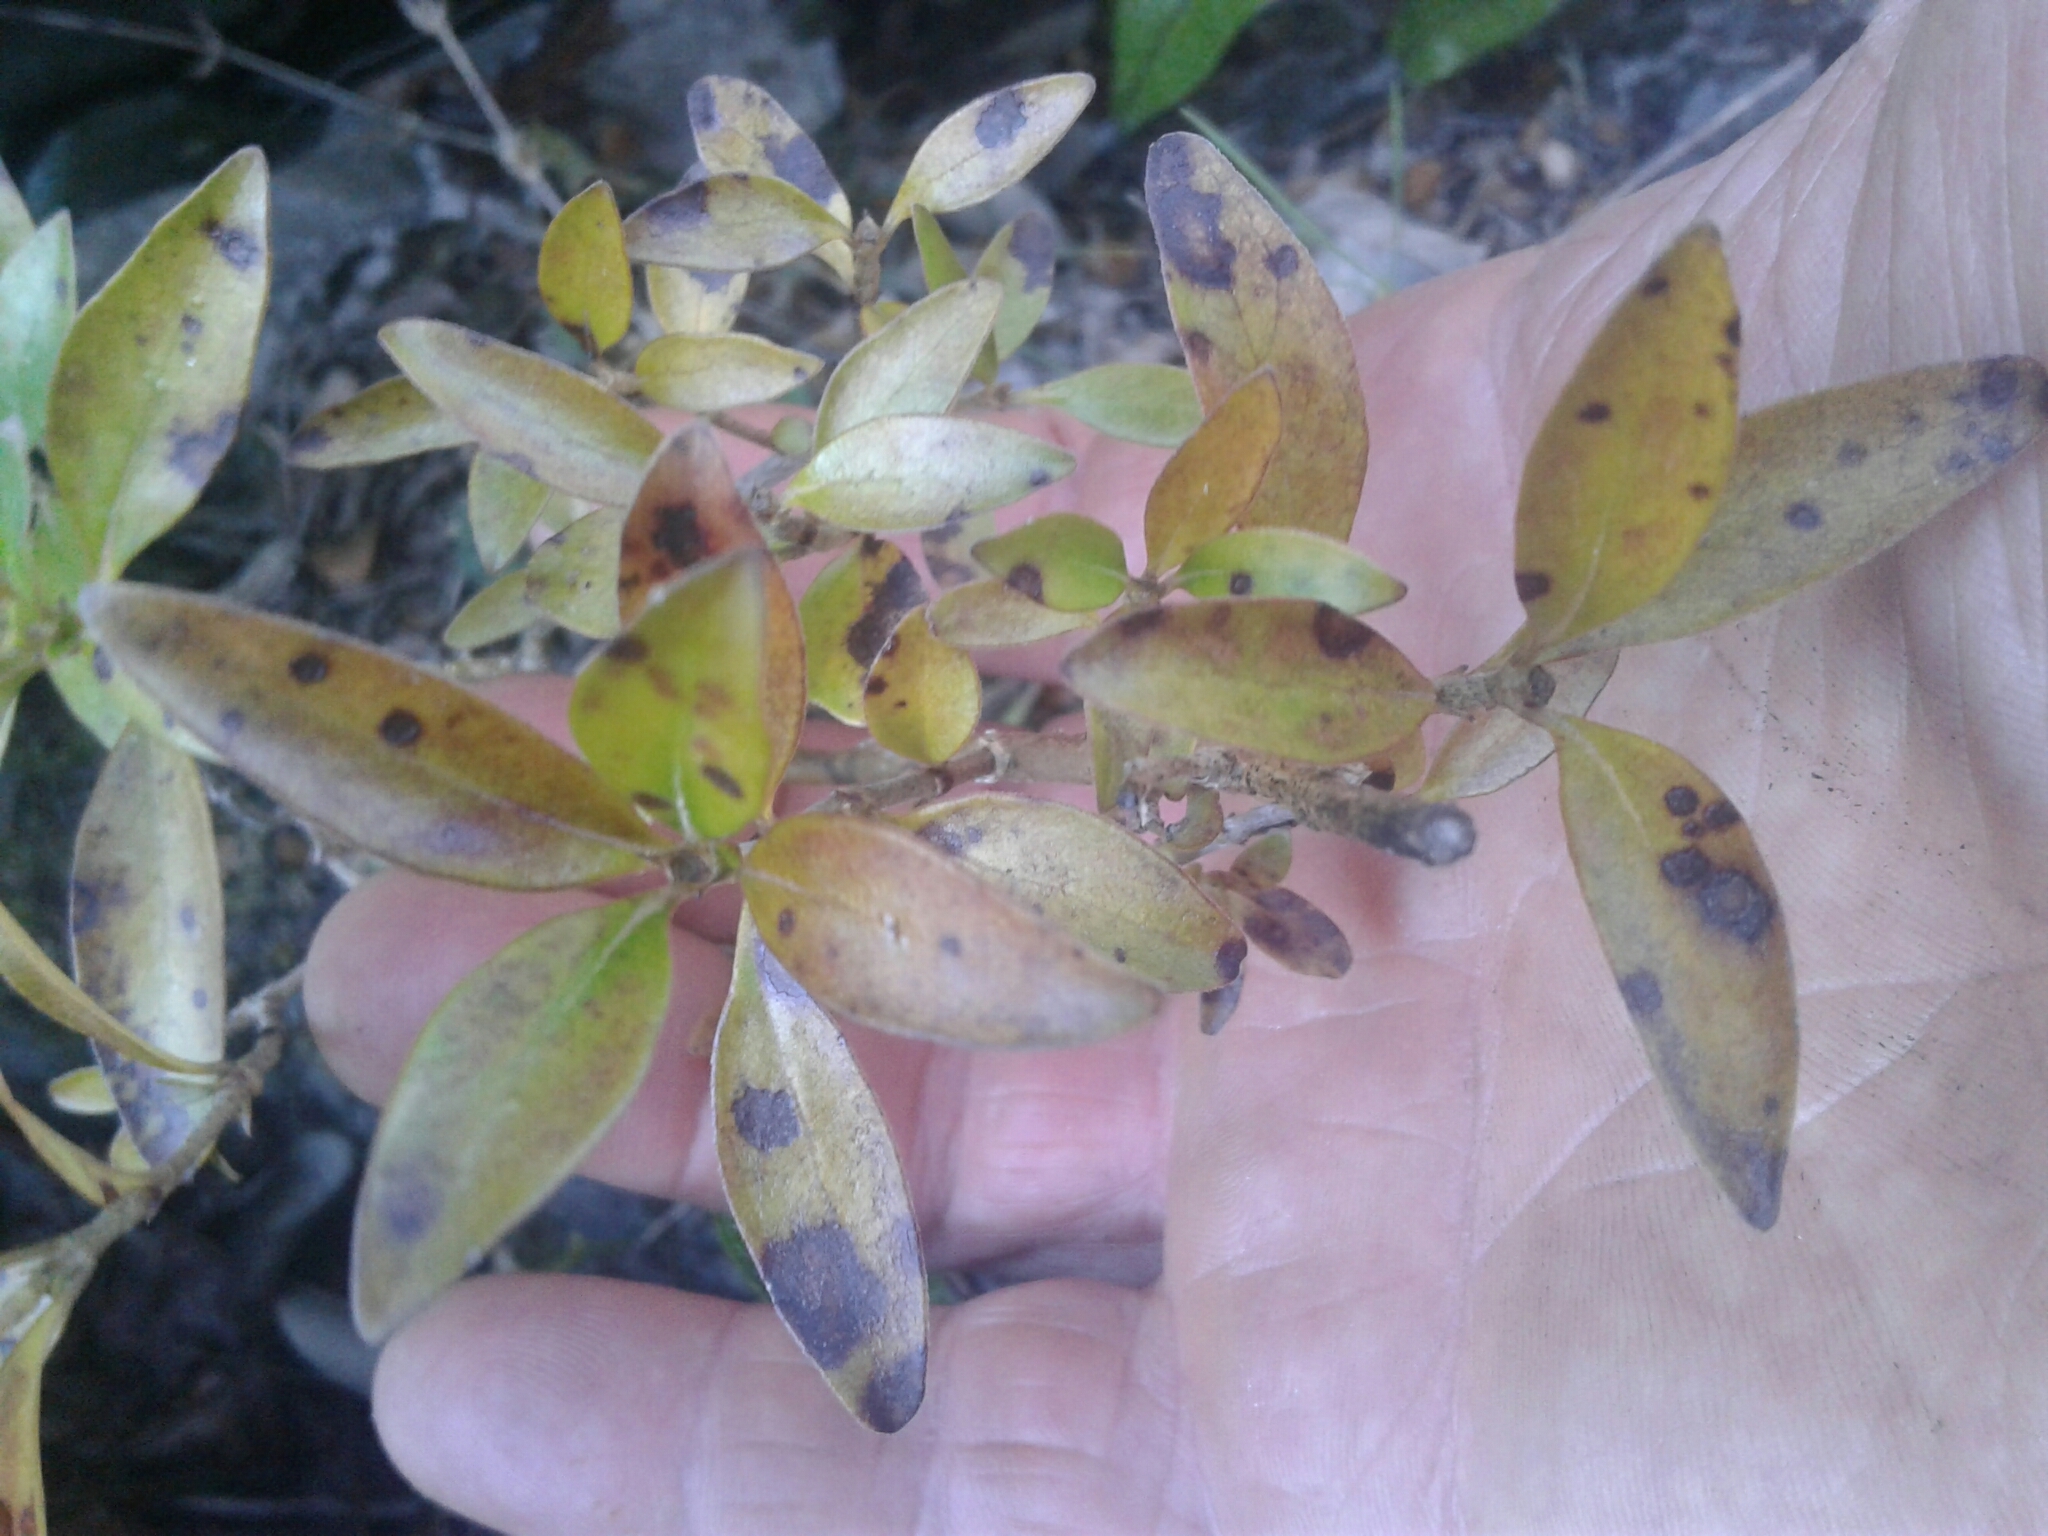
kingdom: Plantae
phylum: Tracheophyta
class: Magnoliopsida
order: Gentianales
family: Rubiaceae
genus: Coprosma
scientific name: Coprosma cunninghamii
